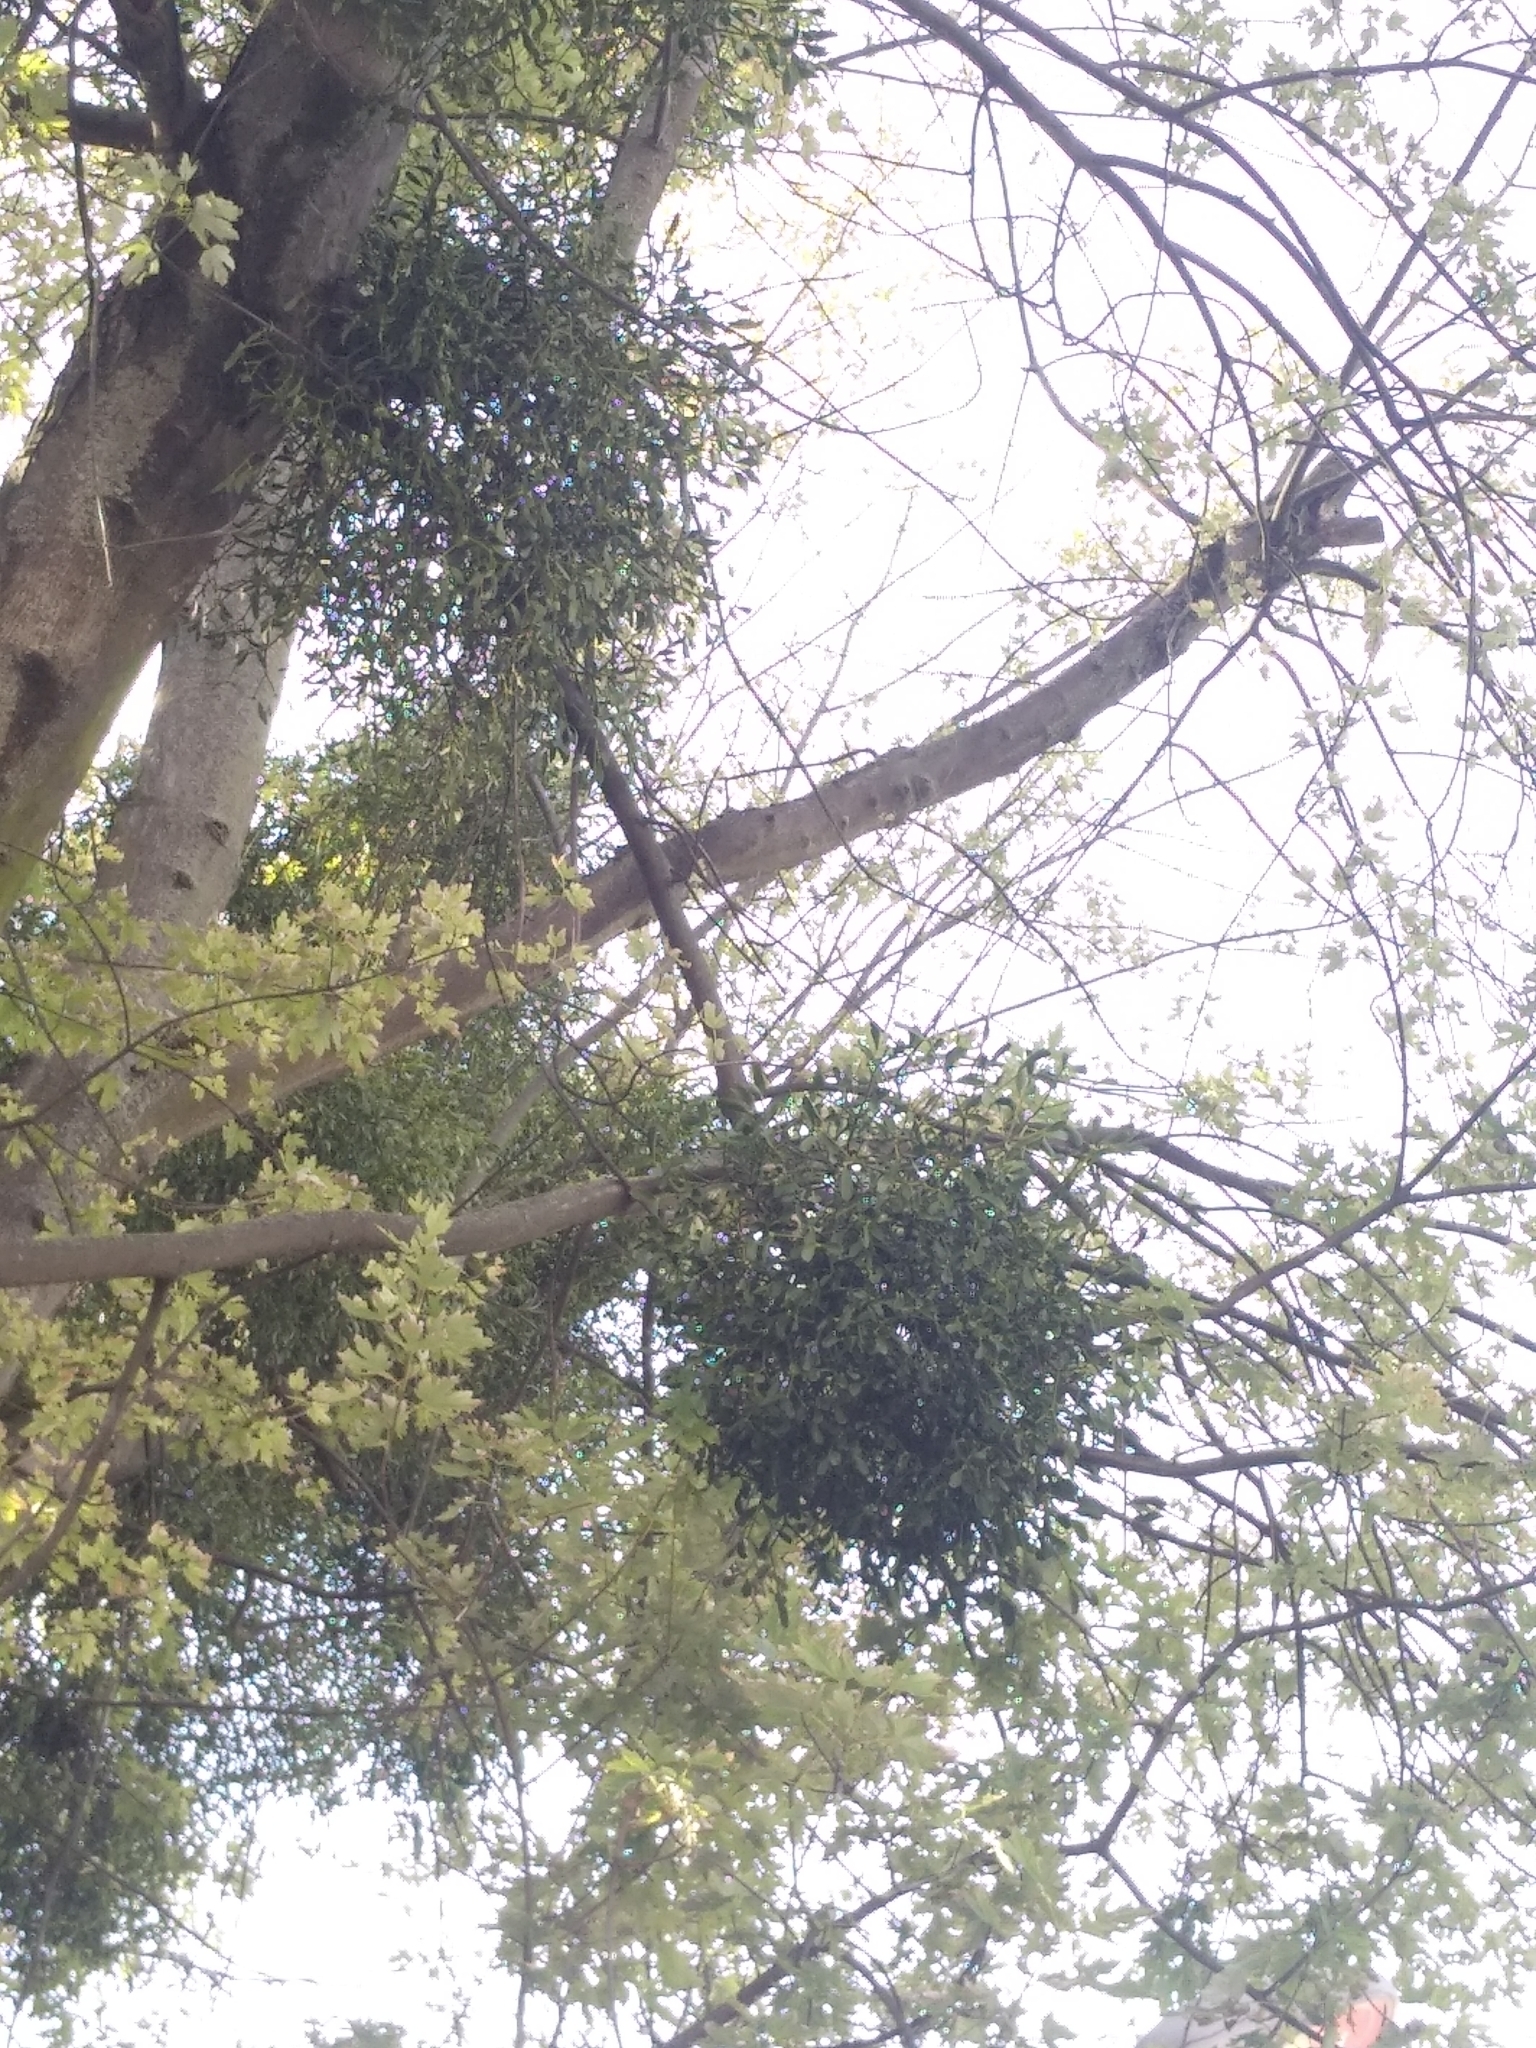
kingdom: Plantae
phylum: Tracheophyta
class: Magnoliopsida
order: Santalales
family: Viscaceae
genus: Viscum
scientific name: Viscum album
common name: Mistletoe
